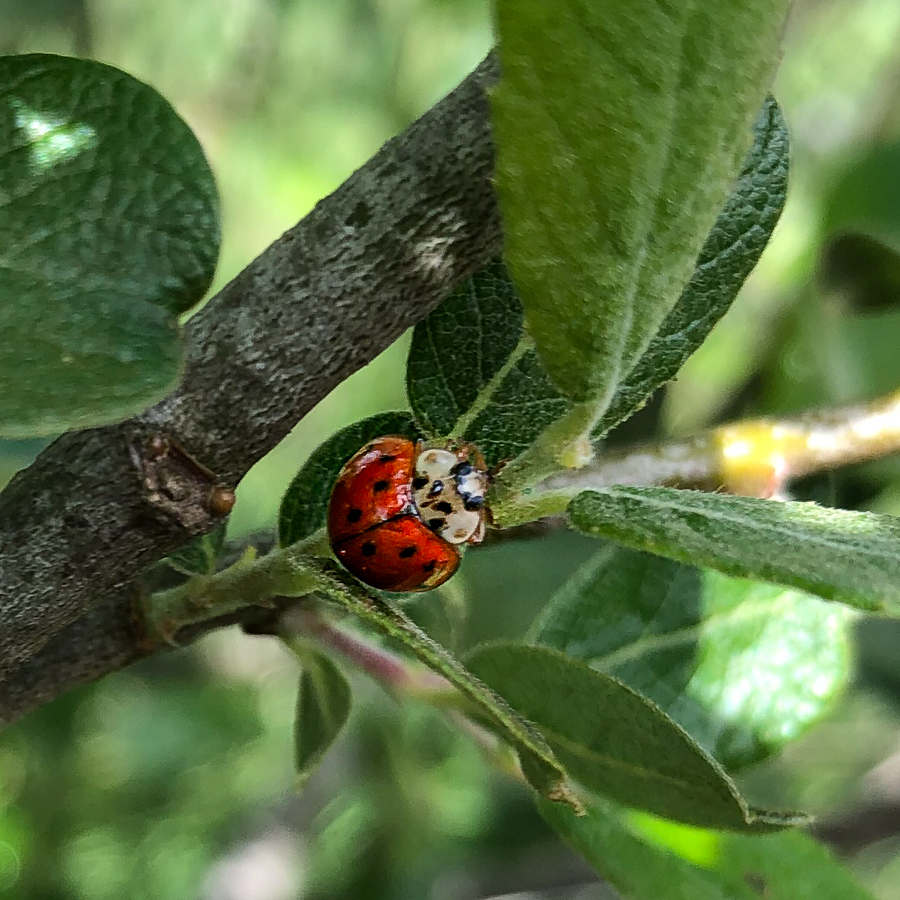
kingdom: Animalia
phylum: Arthropoda
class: Insecta
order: Coleoptera
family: Coccinellidae
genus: Harmonia
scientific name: Harmonia axyridis
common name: Harlequin ladybird
